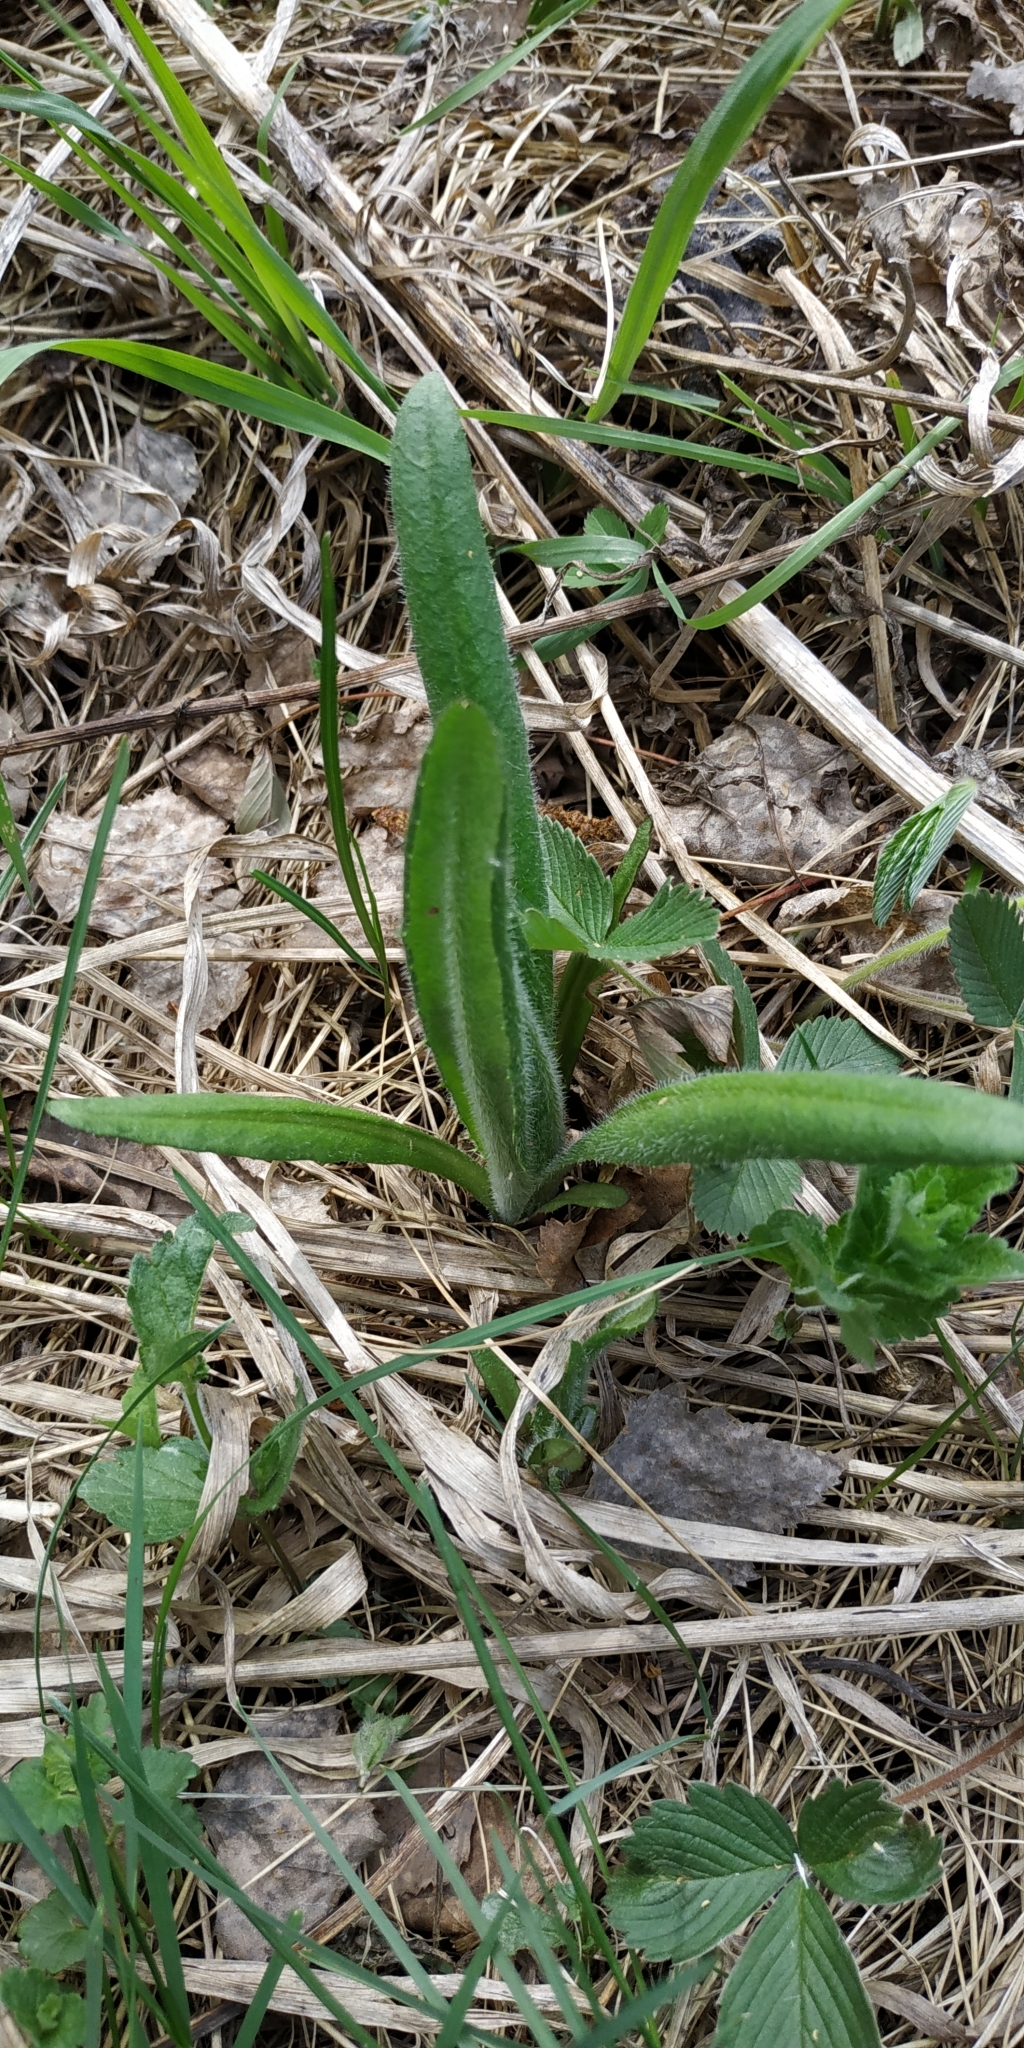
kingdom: Plantae
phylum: Tracheophyta
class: Magnoliopsida
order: Asterales
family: Asteraceae
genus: Cirsium
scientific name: Cirsium arvense
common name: Creeping thistle
